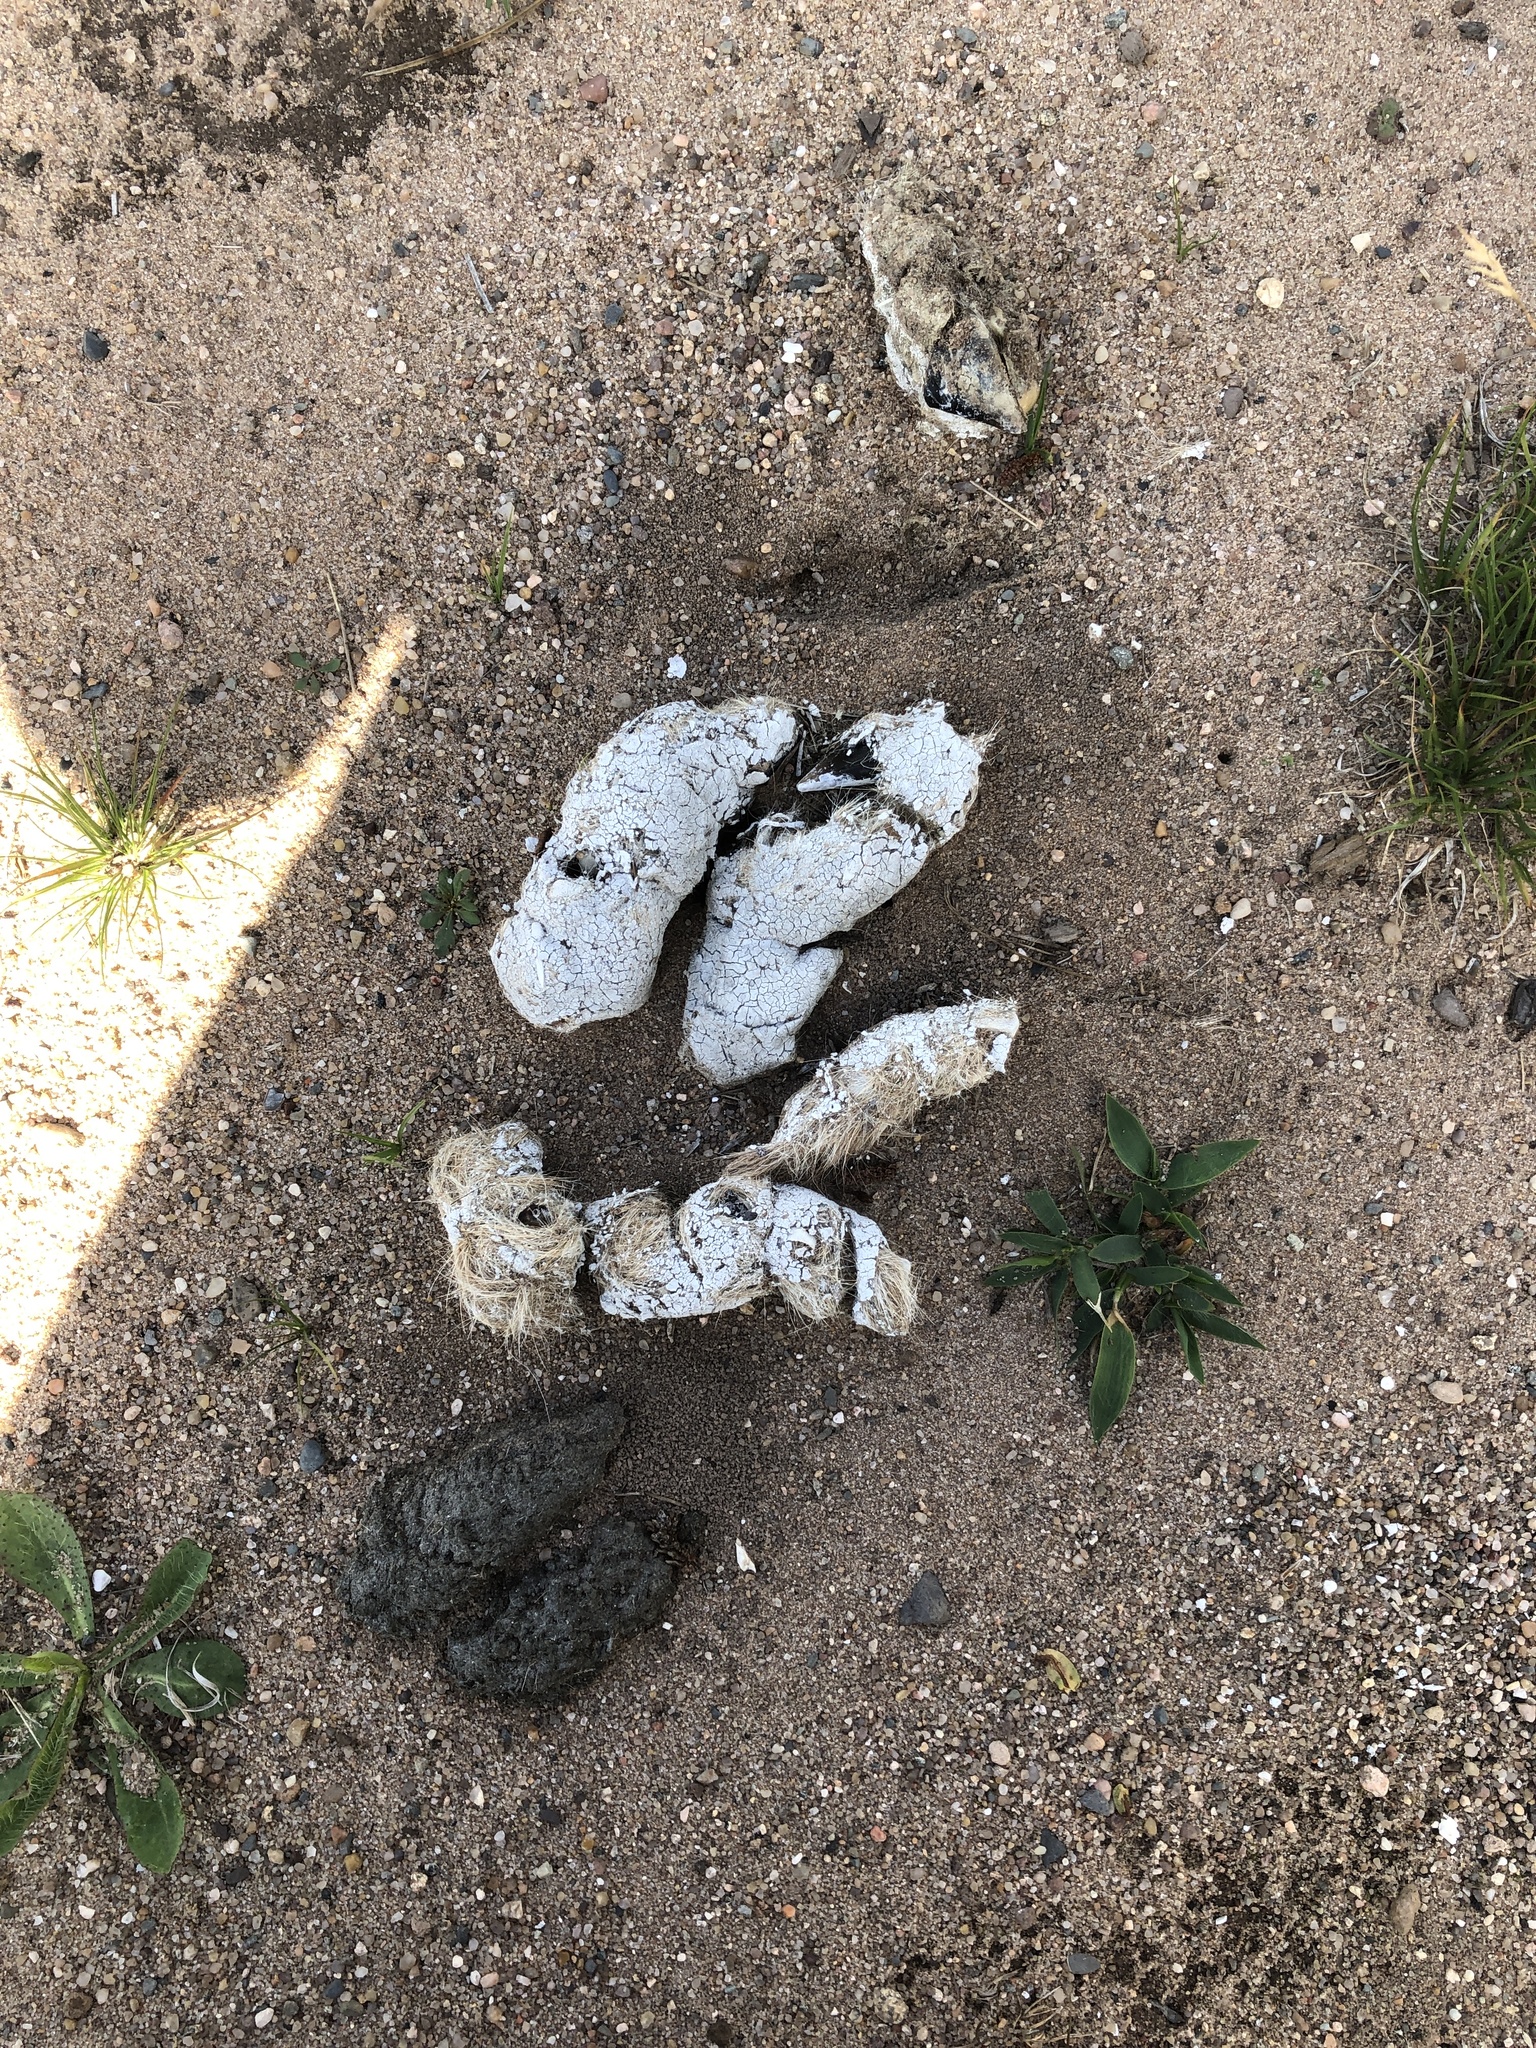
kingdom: Animalia
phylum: Chordata
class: Mammalia
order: Carnivora
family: Canidae
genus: Canis
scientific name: Canis lupus
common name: Gray wolf
